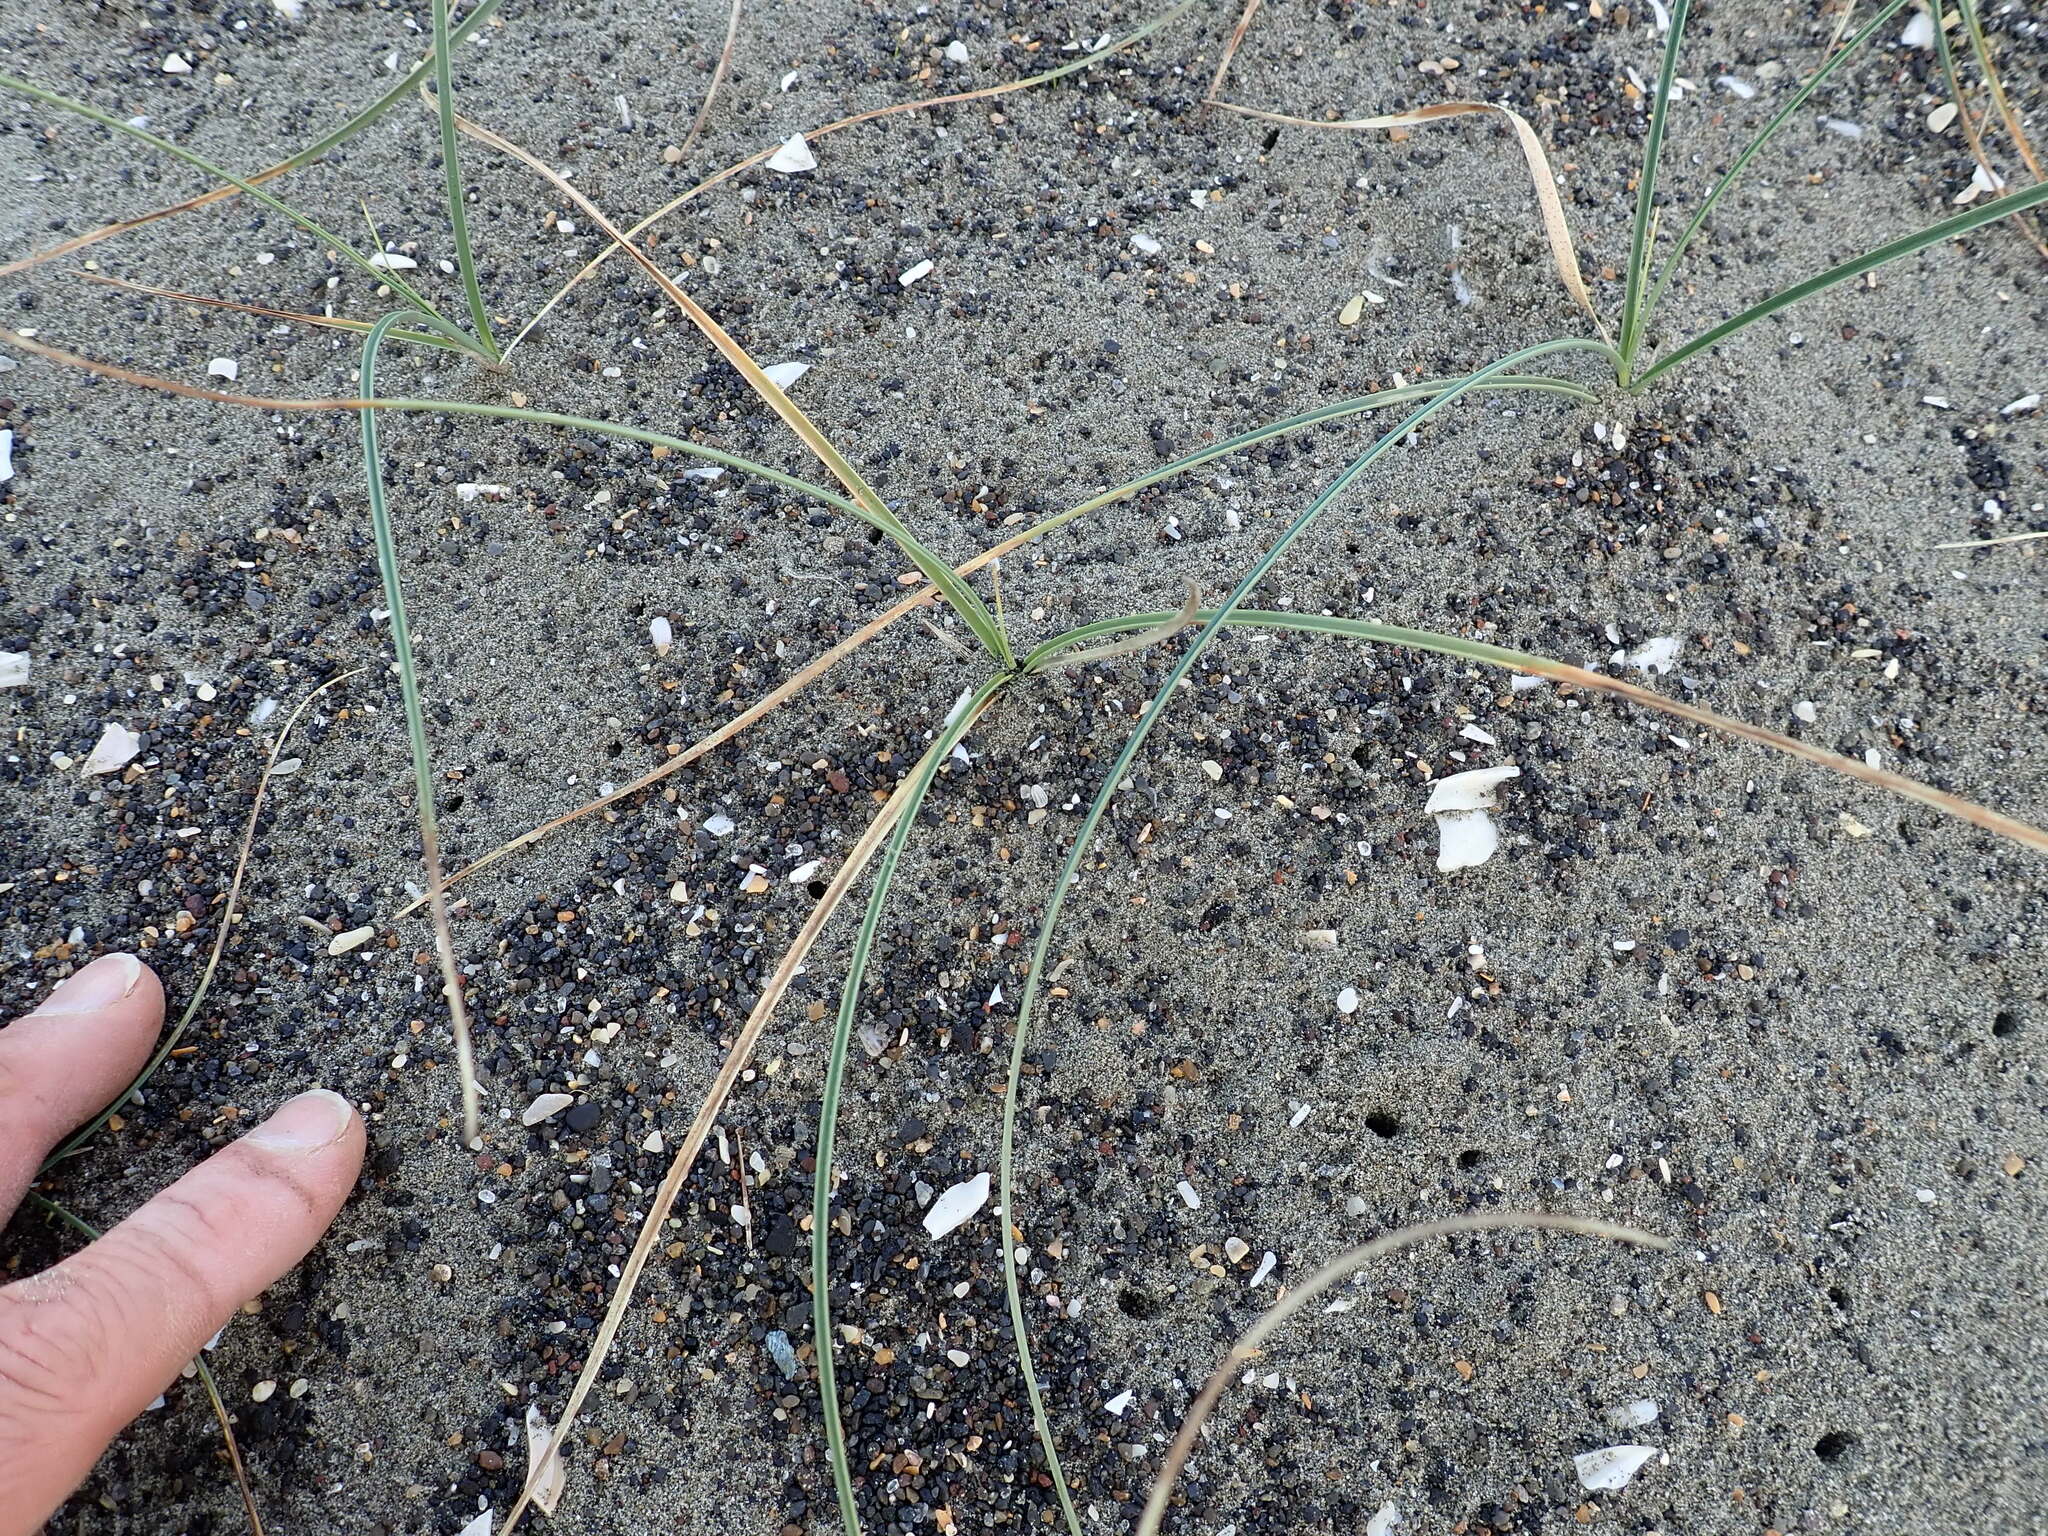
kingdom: Plantae
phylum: Tracheophyta
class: Liliopsida
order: Poales
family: Cyperaceae
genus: Carex
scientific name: Carex pumila
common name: Dwarf sedge
